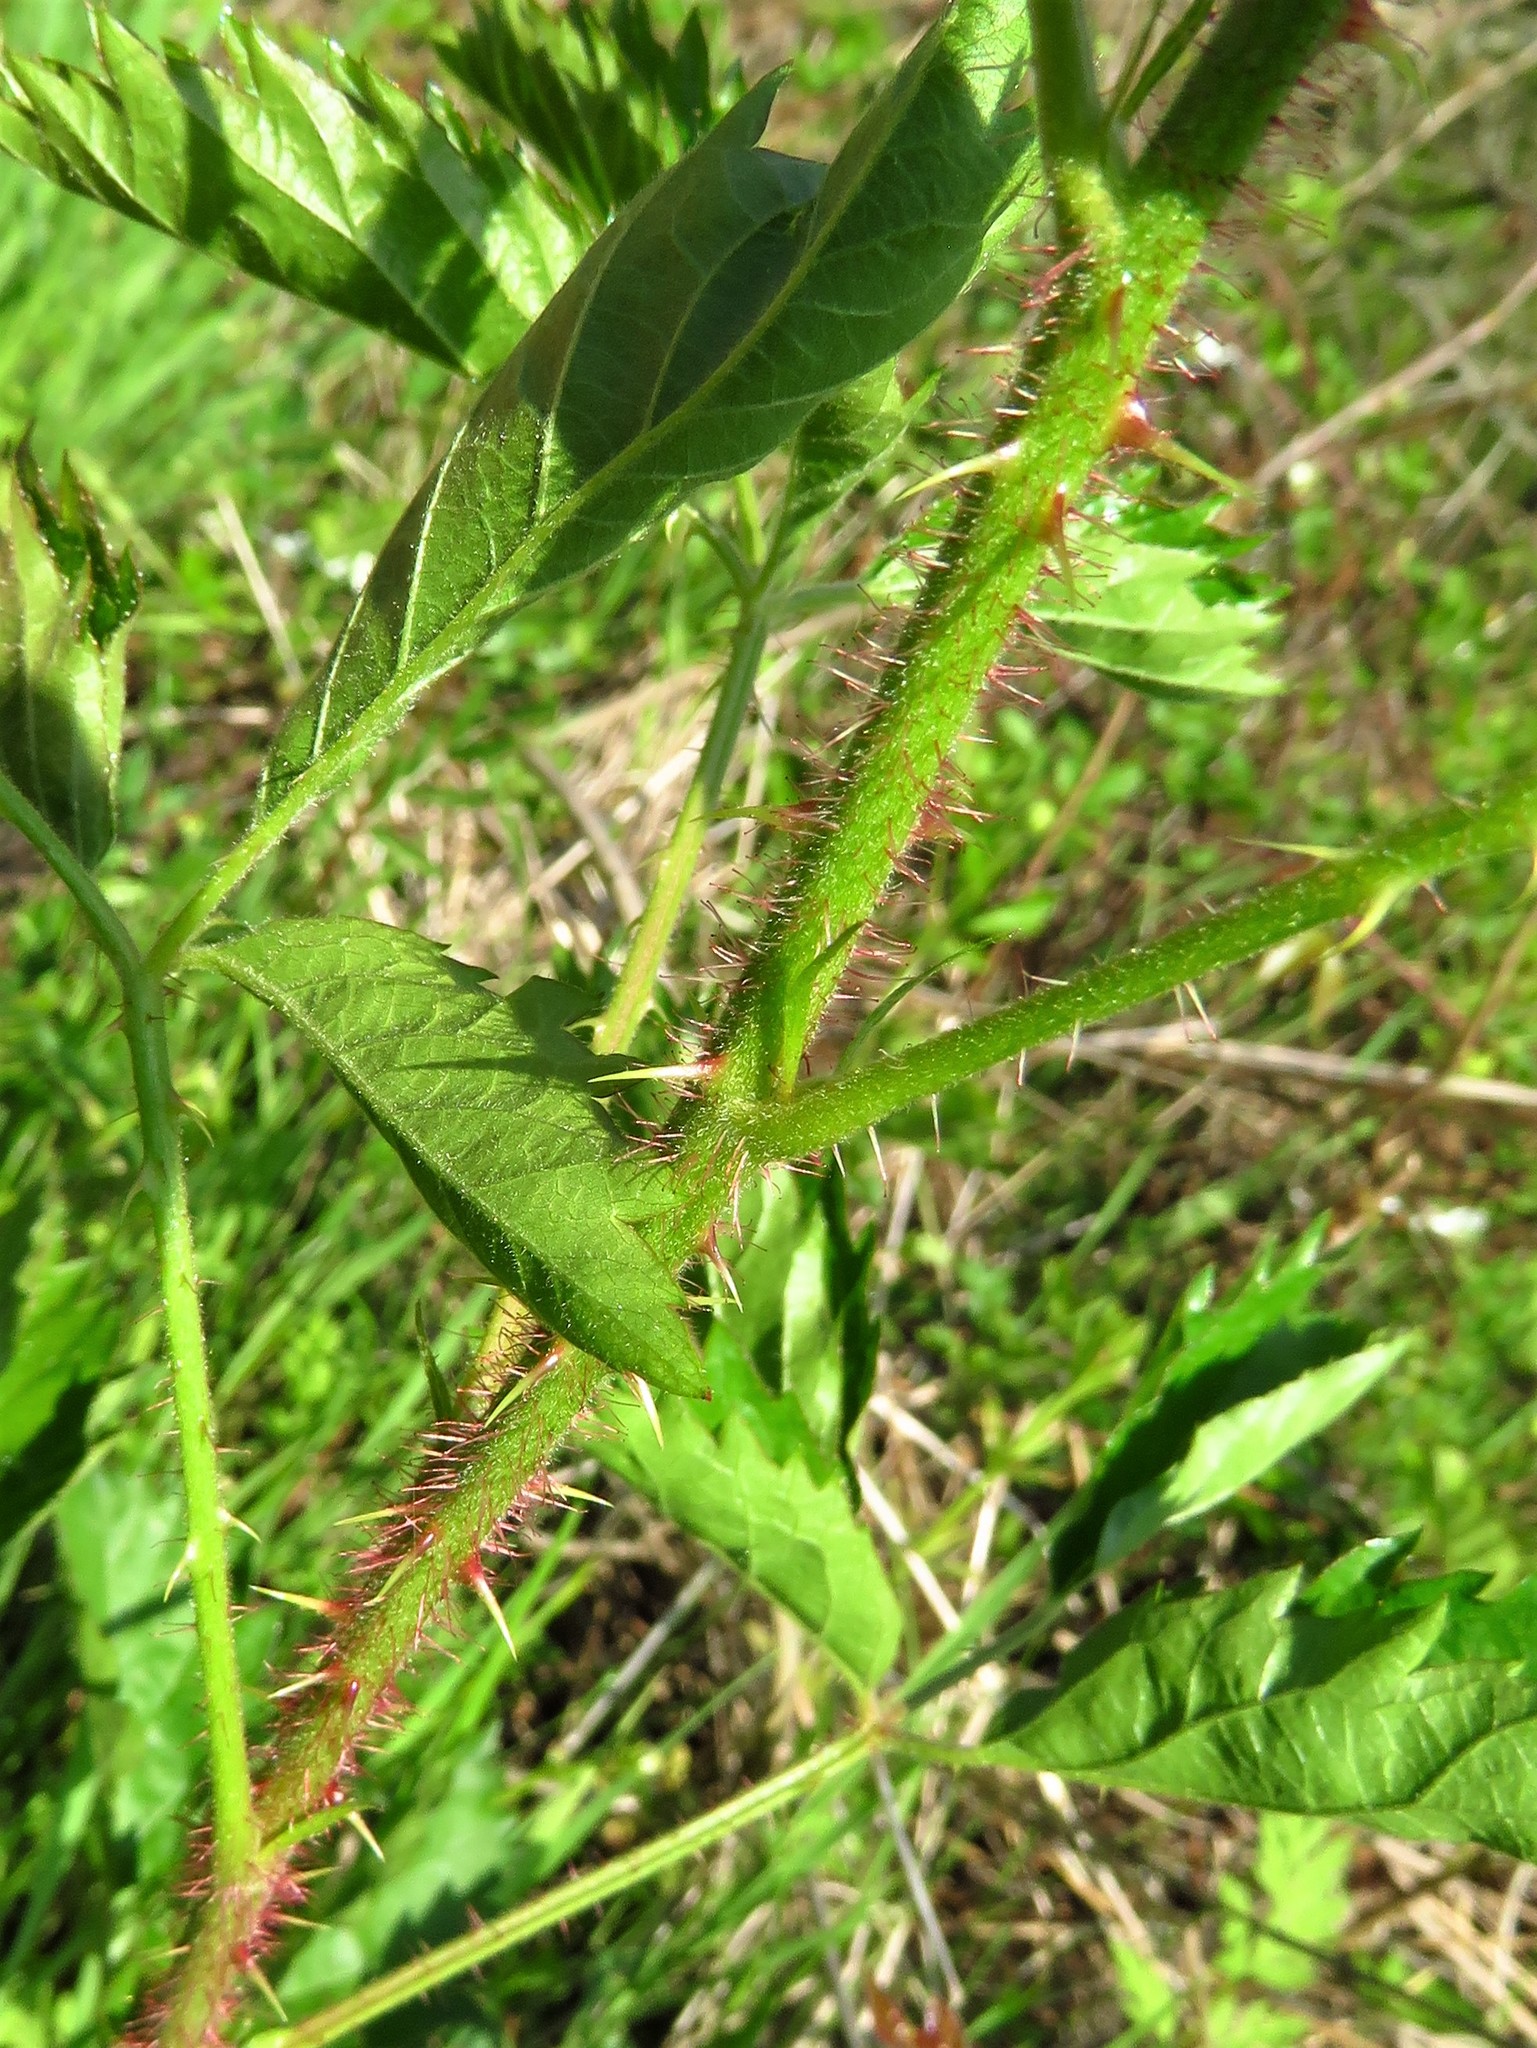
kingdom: Plantae
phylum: Tracheophyta
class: Magnoliopsida
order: Rosales
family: Rosaceae
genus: Rubus
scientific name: Rubus trivialis
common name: Southern dewberry
